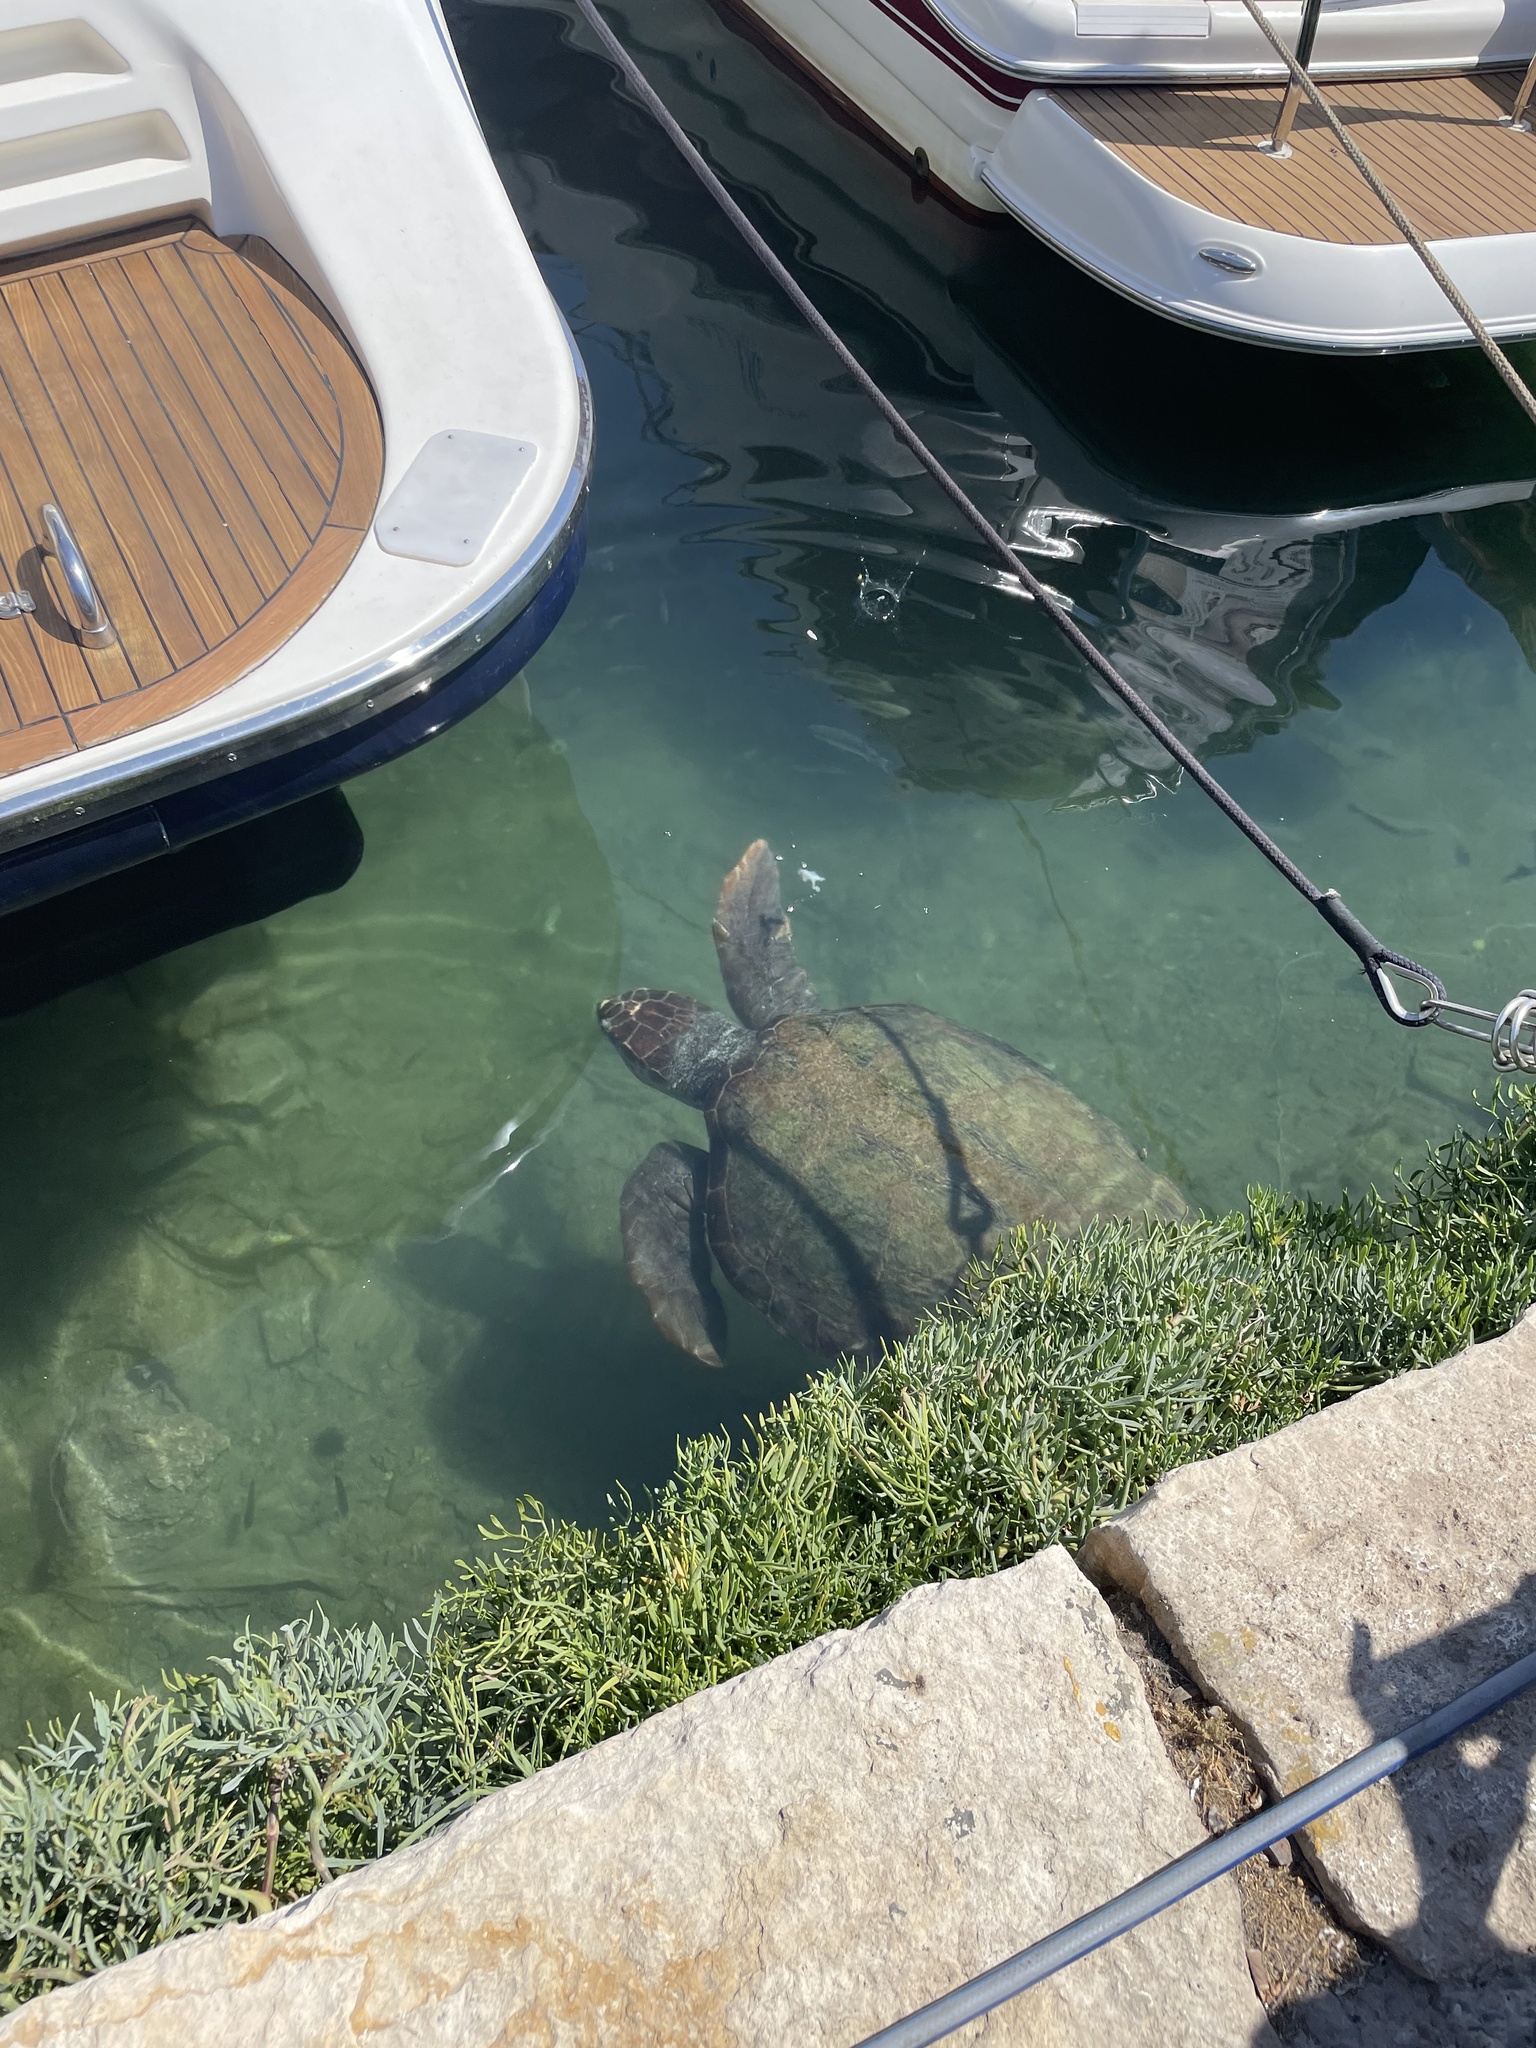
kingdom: Animalia
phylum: Chordata
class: Testudines
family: Cheloniidae
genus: Caretta
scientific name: Caretta caretta
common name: Loggerhead sea turtle
